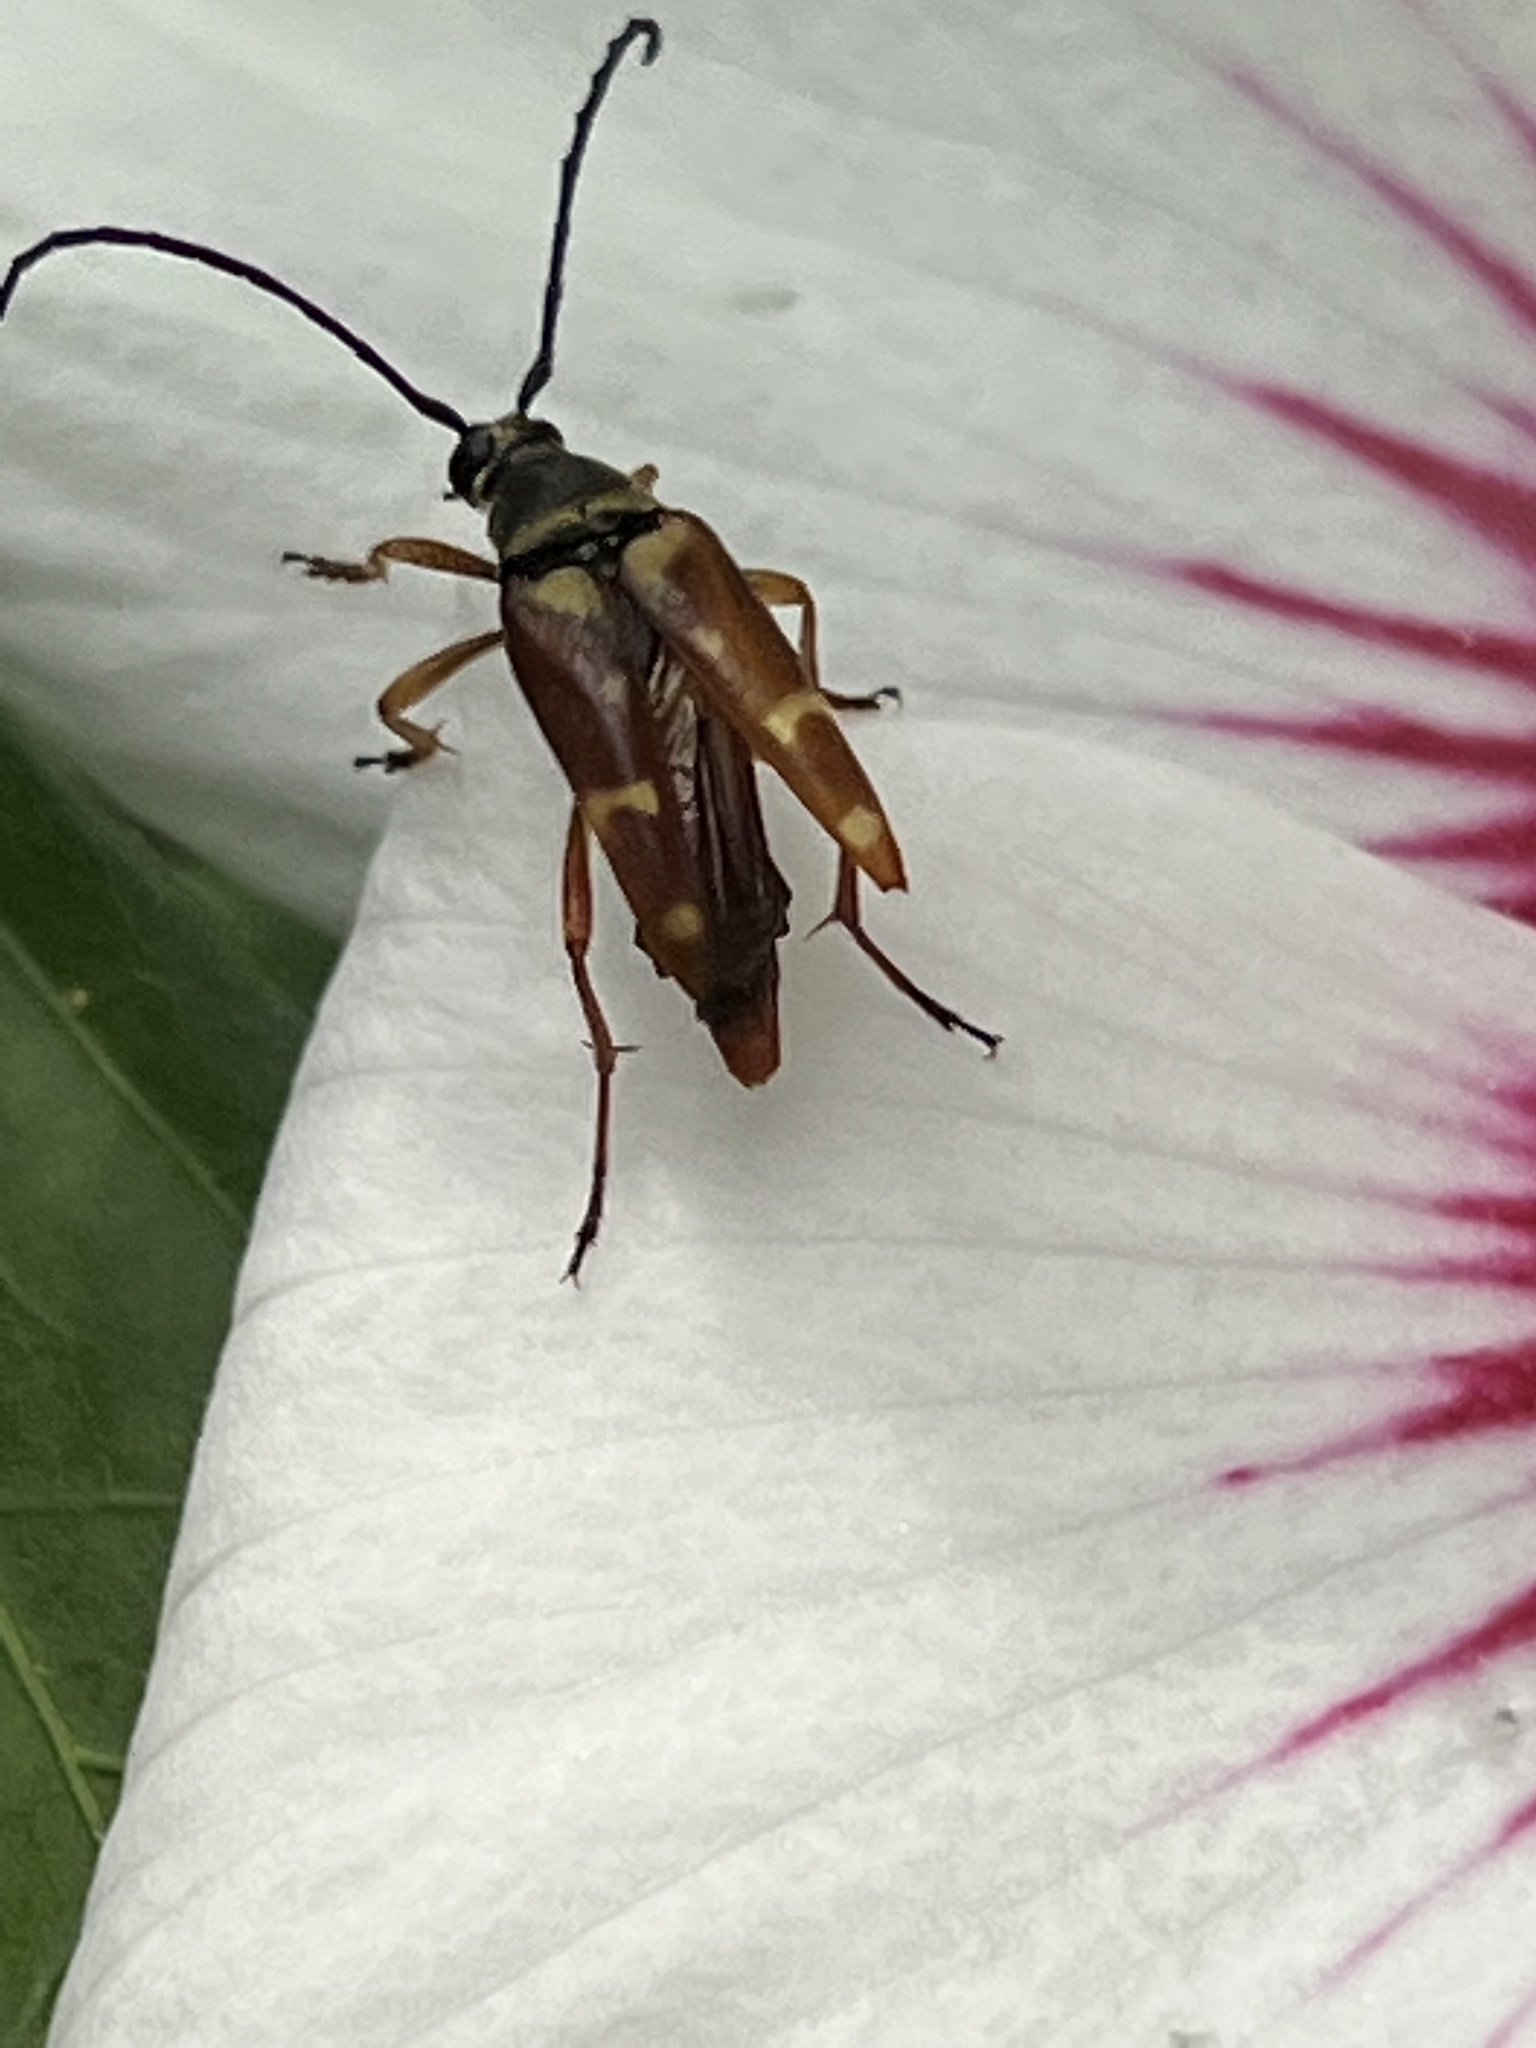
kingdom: Animalia
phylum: Arthropoda
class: Insecta
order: Coleoptera
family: Cerambycidae
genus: Typocerus
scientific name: Typocerus velutinus
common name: Banded longhorn beetle
